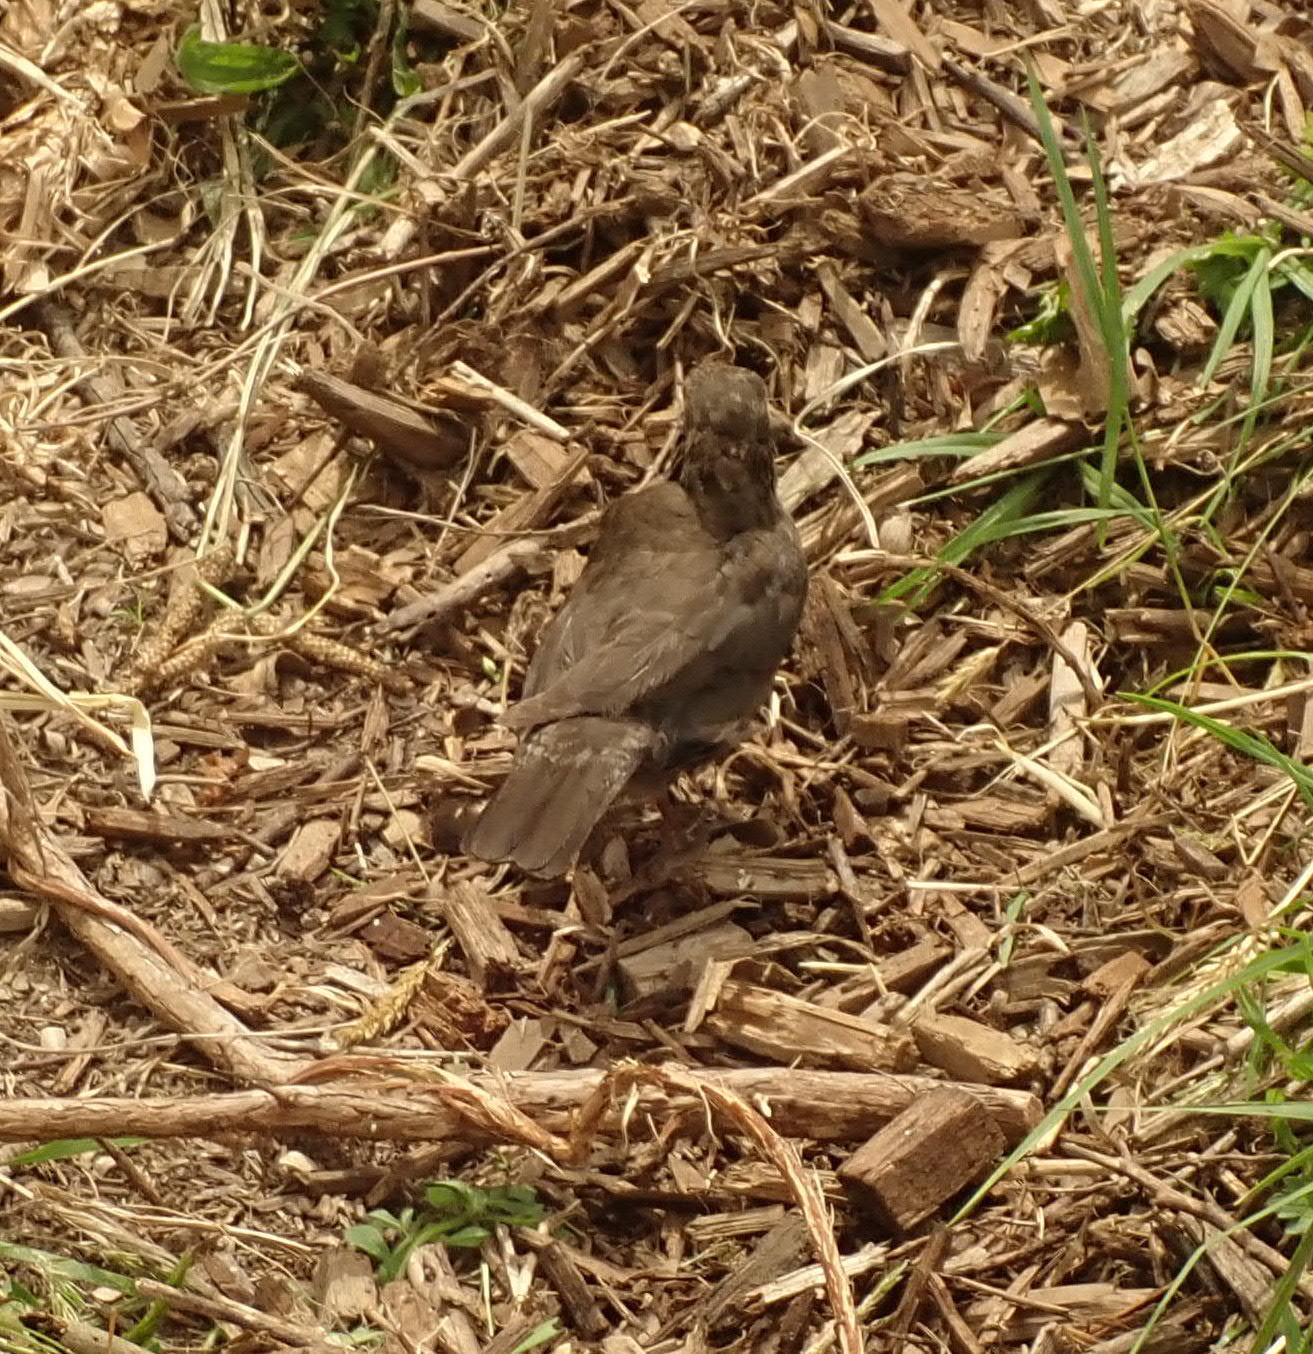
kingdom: Animalia
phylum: Chordata
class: Aves
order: Passeriformes
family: Turdidae
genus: Turdus
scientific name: Turdus merula
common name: Common blackbird
